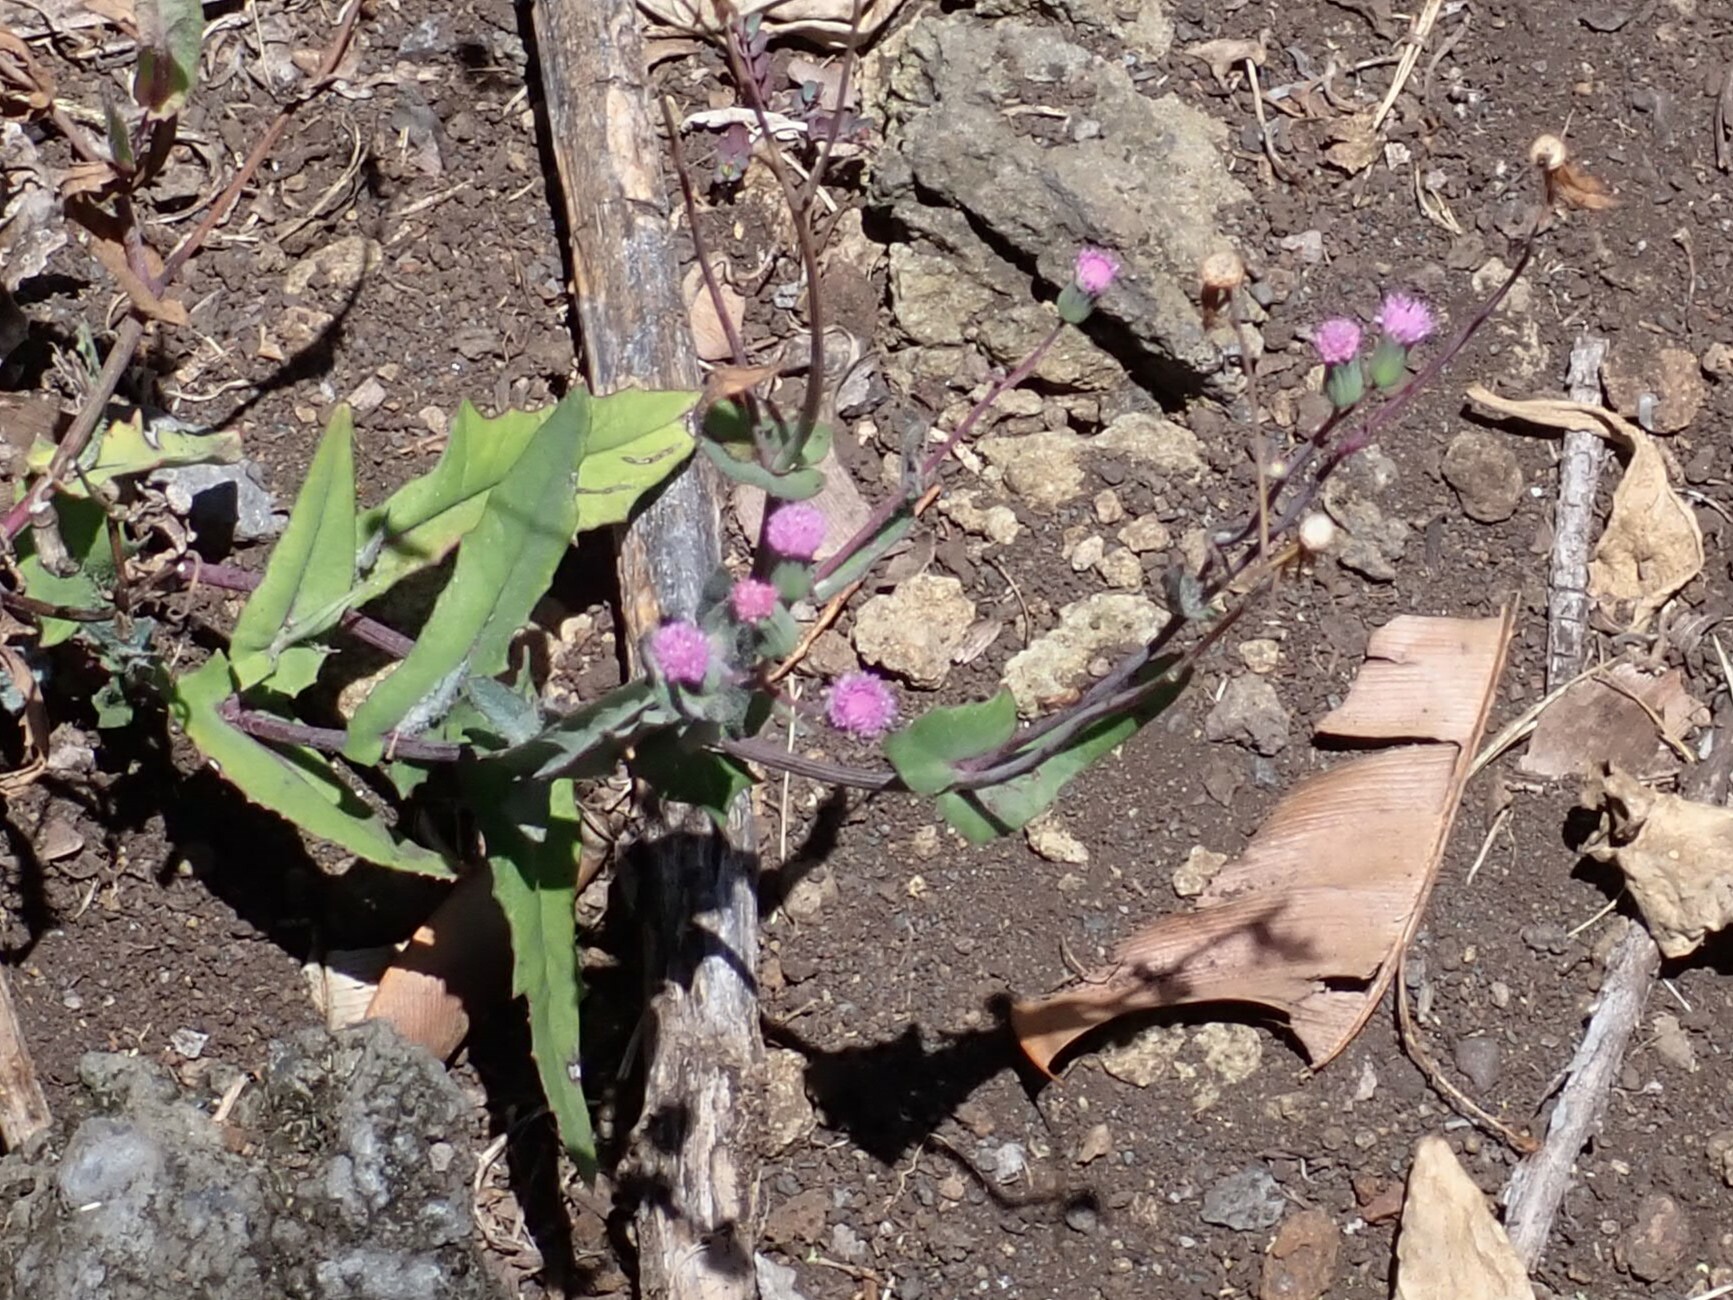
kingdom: Plantae
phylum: Tracheophyta
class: Magnoliopsida
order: Asterales
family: Asteraceae
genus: Emilia
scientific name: Emilia sonchifolia
